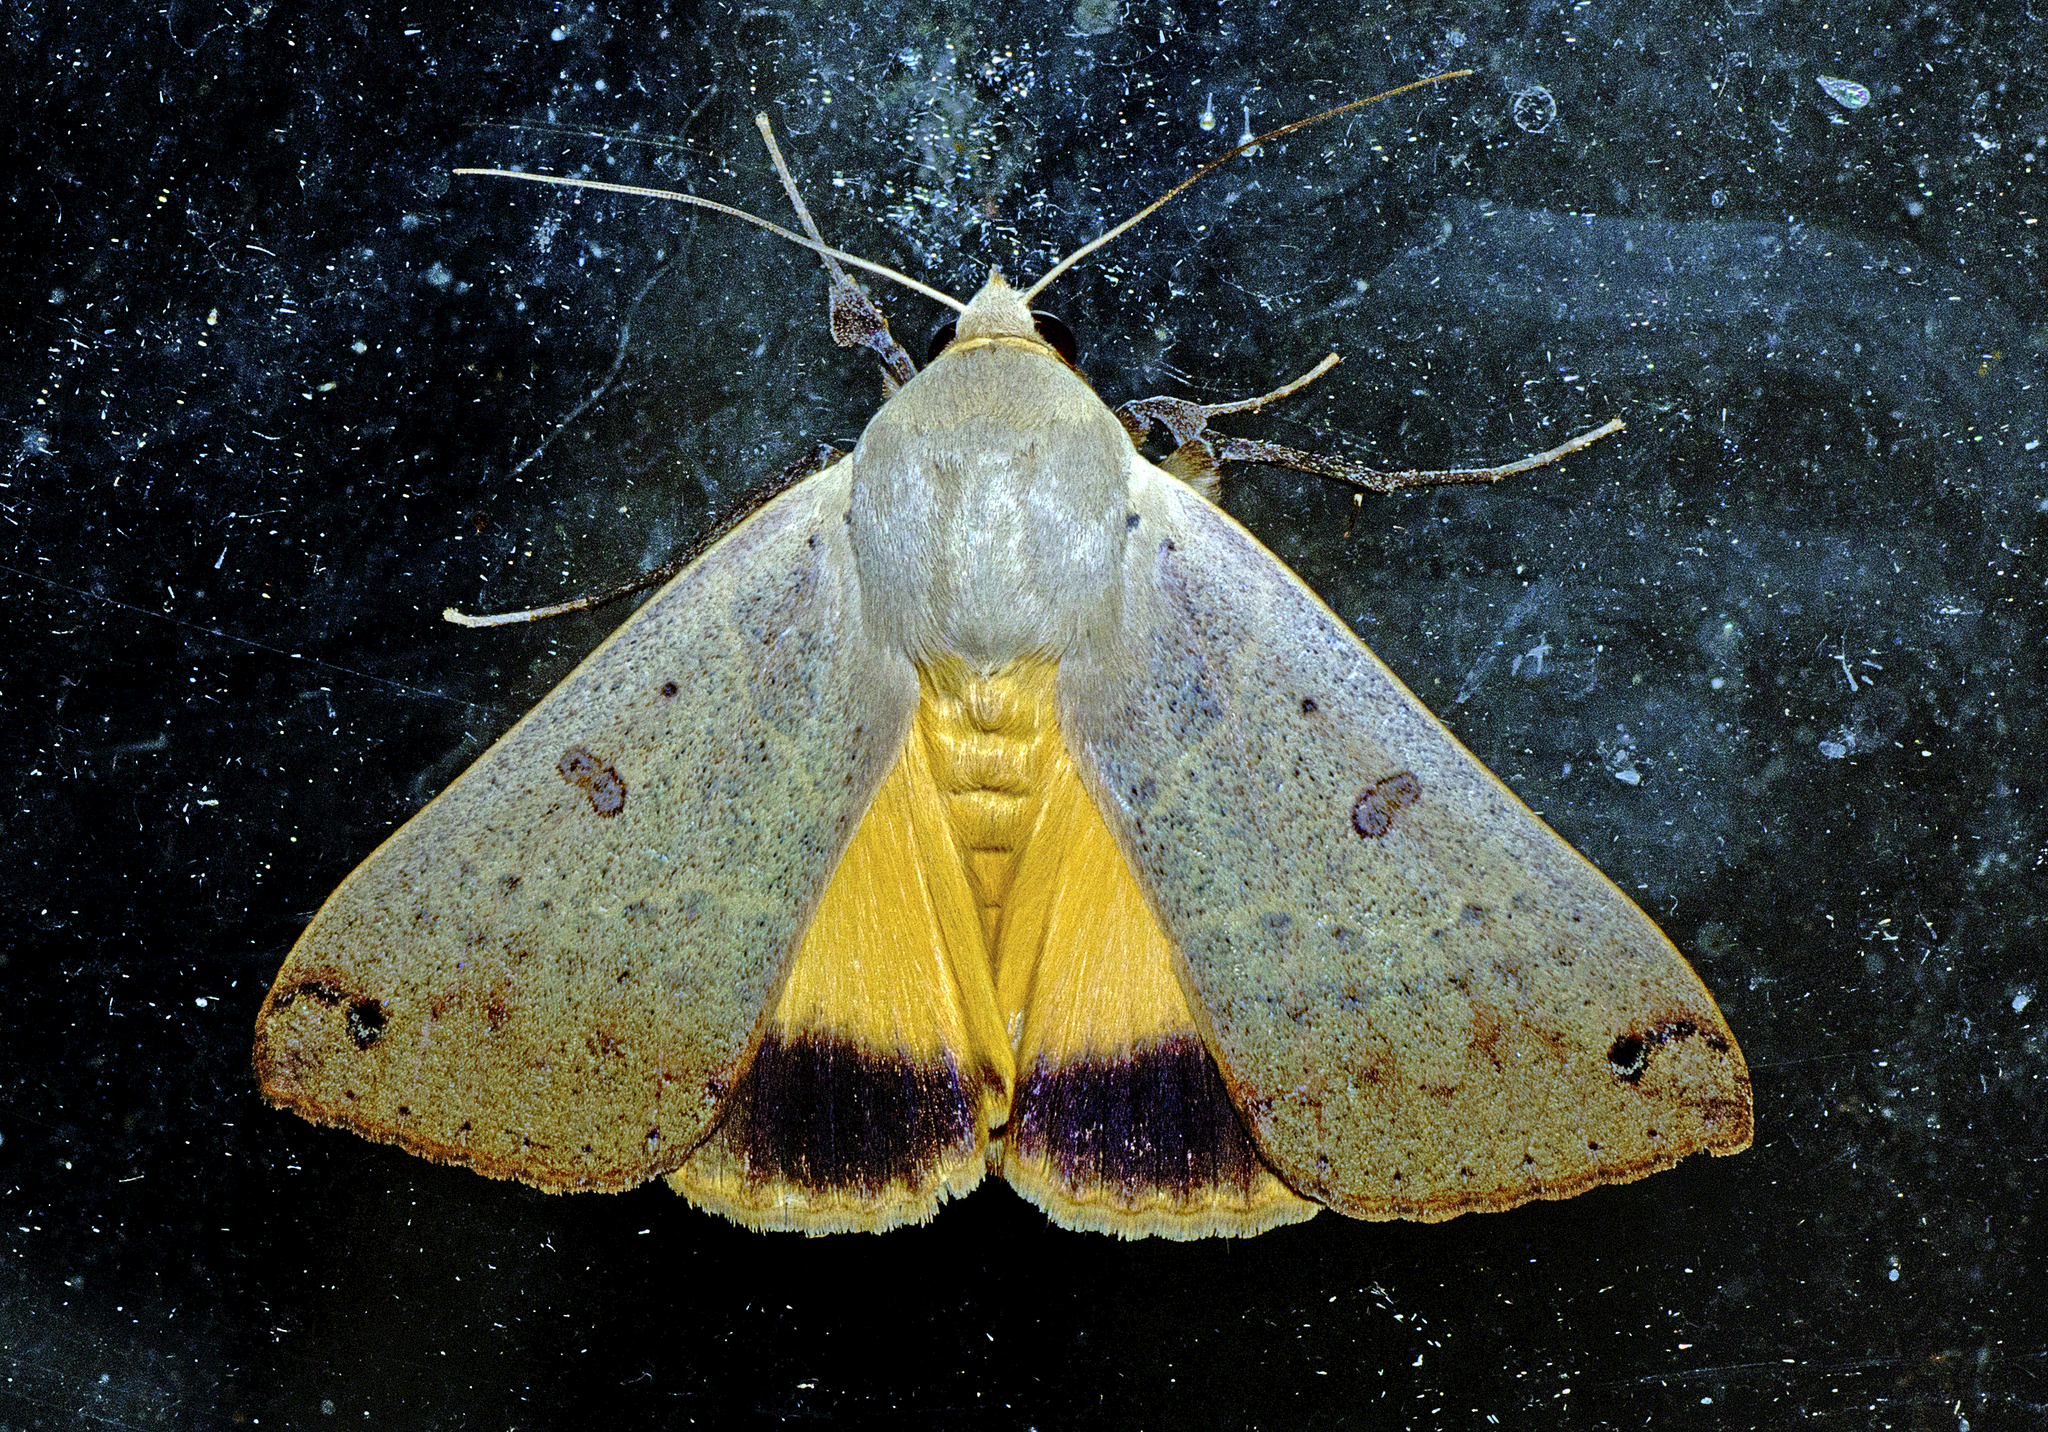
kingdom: Animalia
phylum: Arthropoda
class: Insecta
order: Lepidoptera
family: Erebidae
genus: Ophiusa
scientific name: Ophiusa disjungens
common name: Moth
